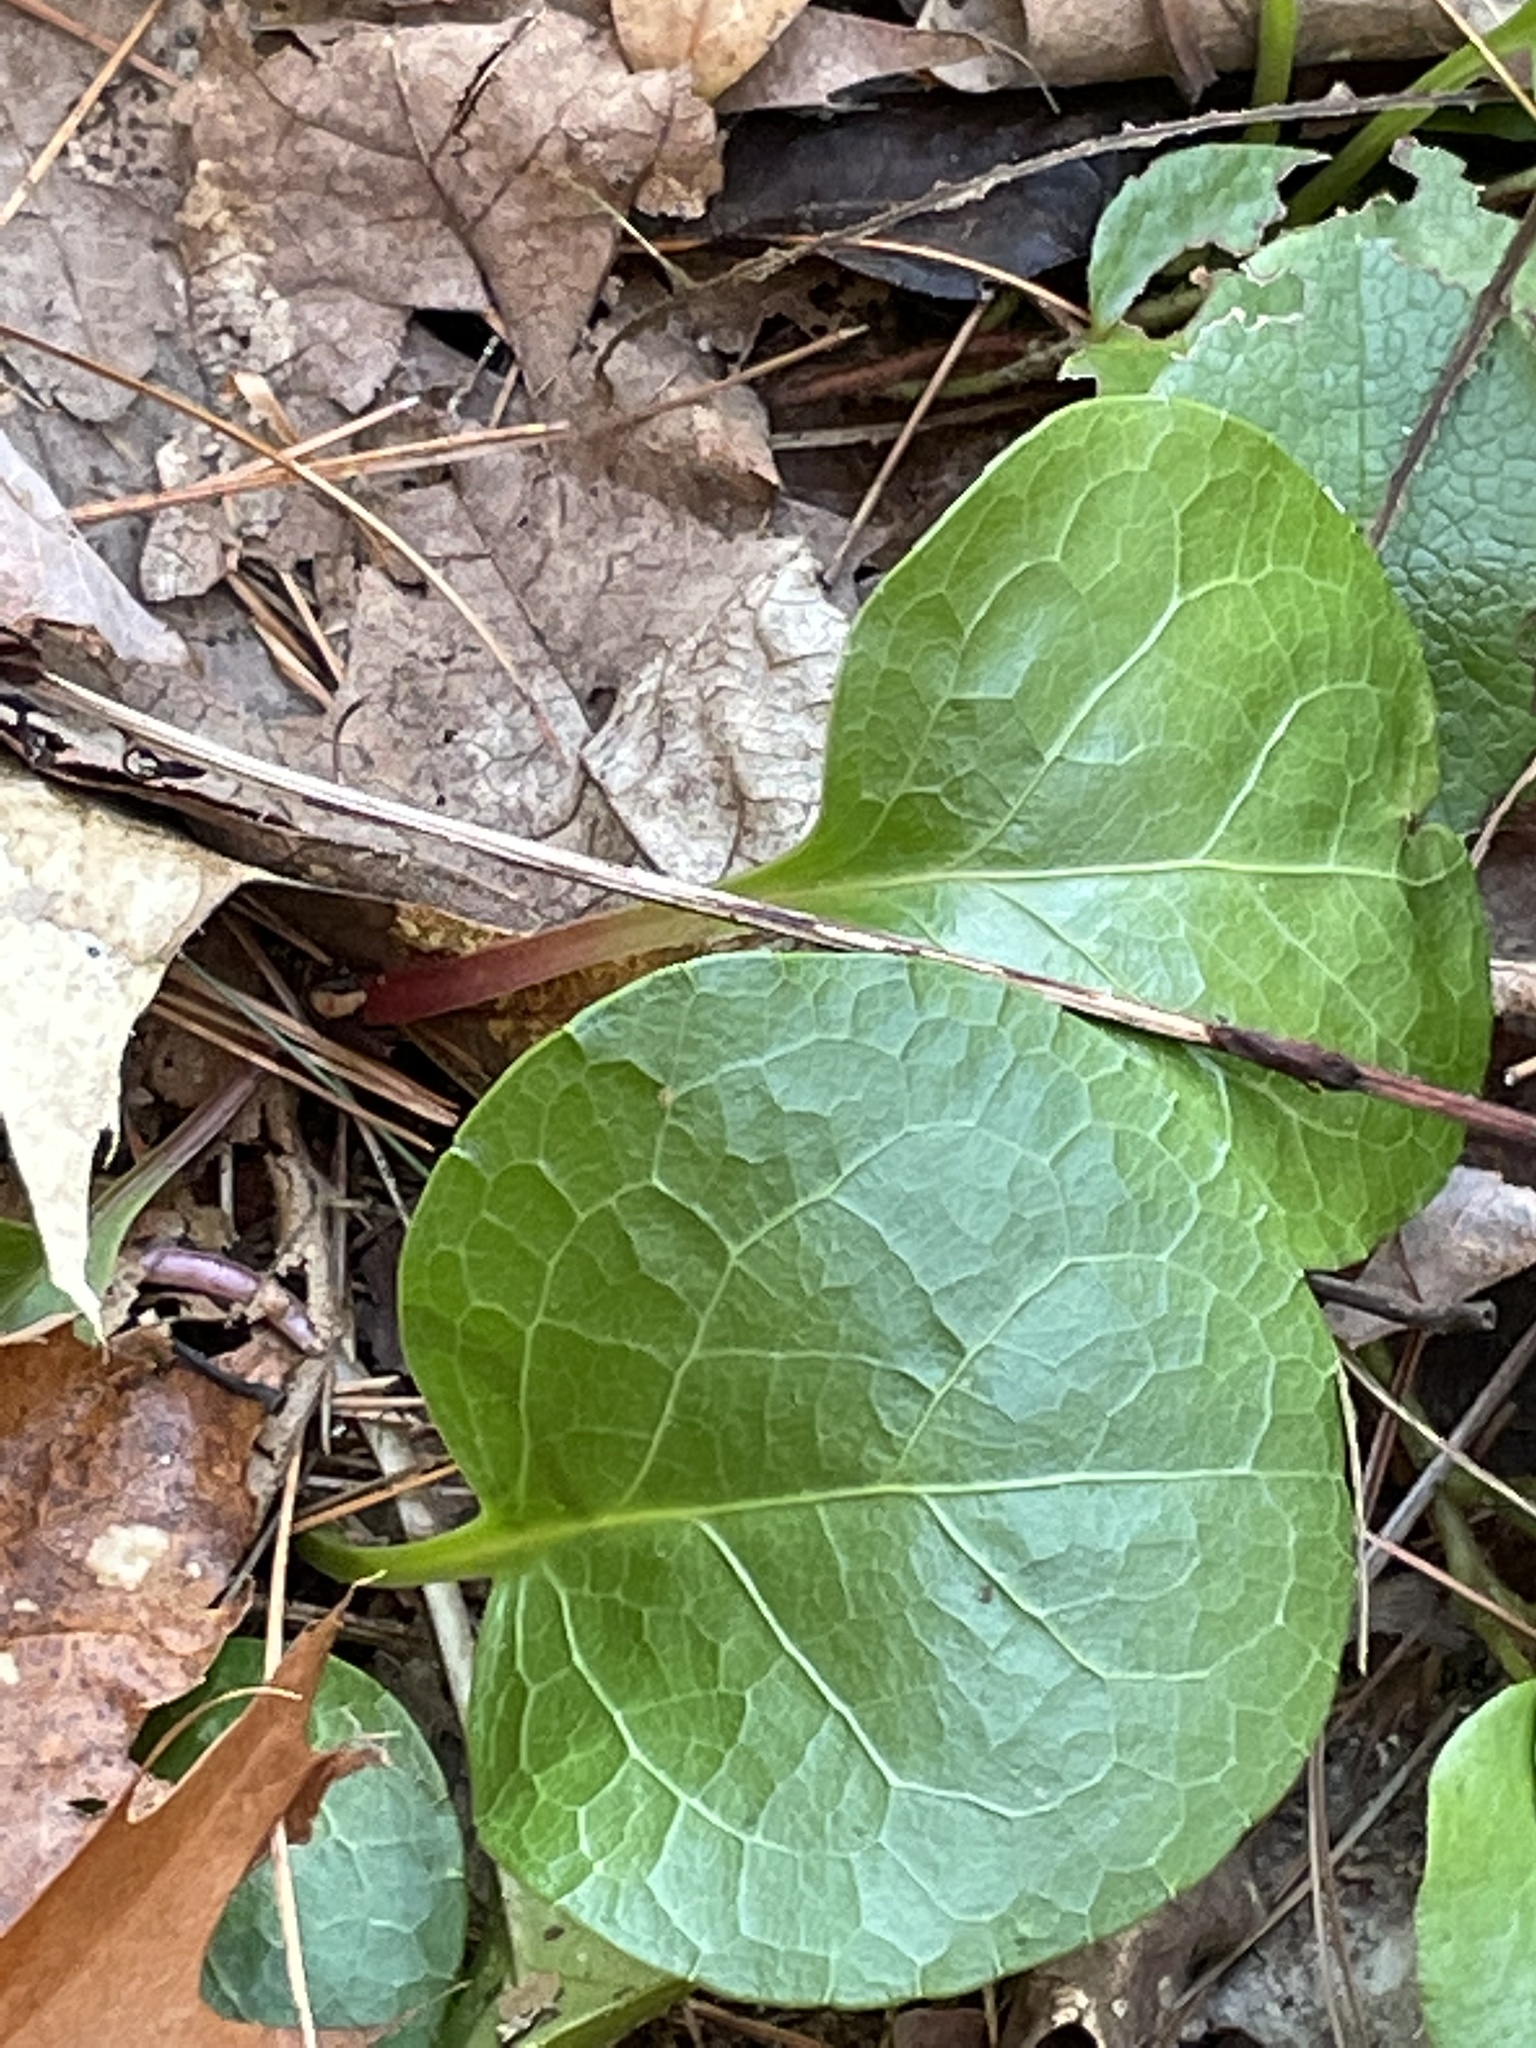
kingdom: Plantae
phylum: Tracheophyta
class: Magnoliopsida
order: Ericales
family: Ericaceae
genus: Pyrola
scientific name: Pyrola americana
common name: American wintergreen
